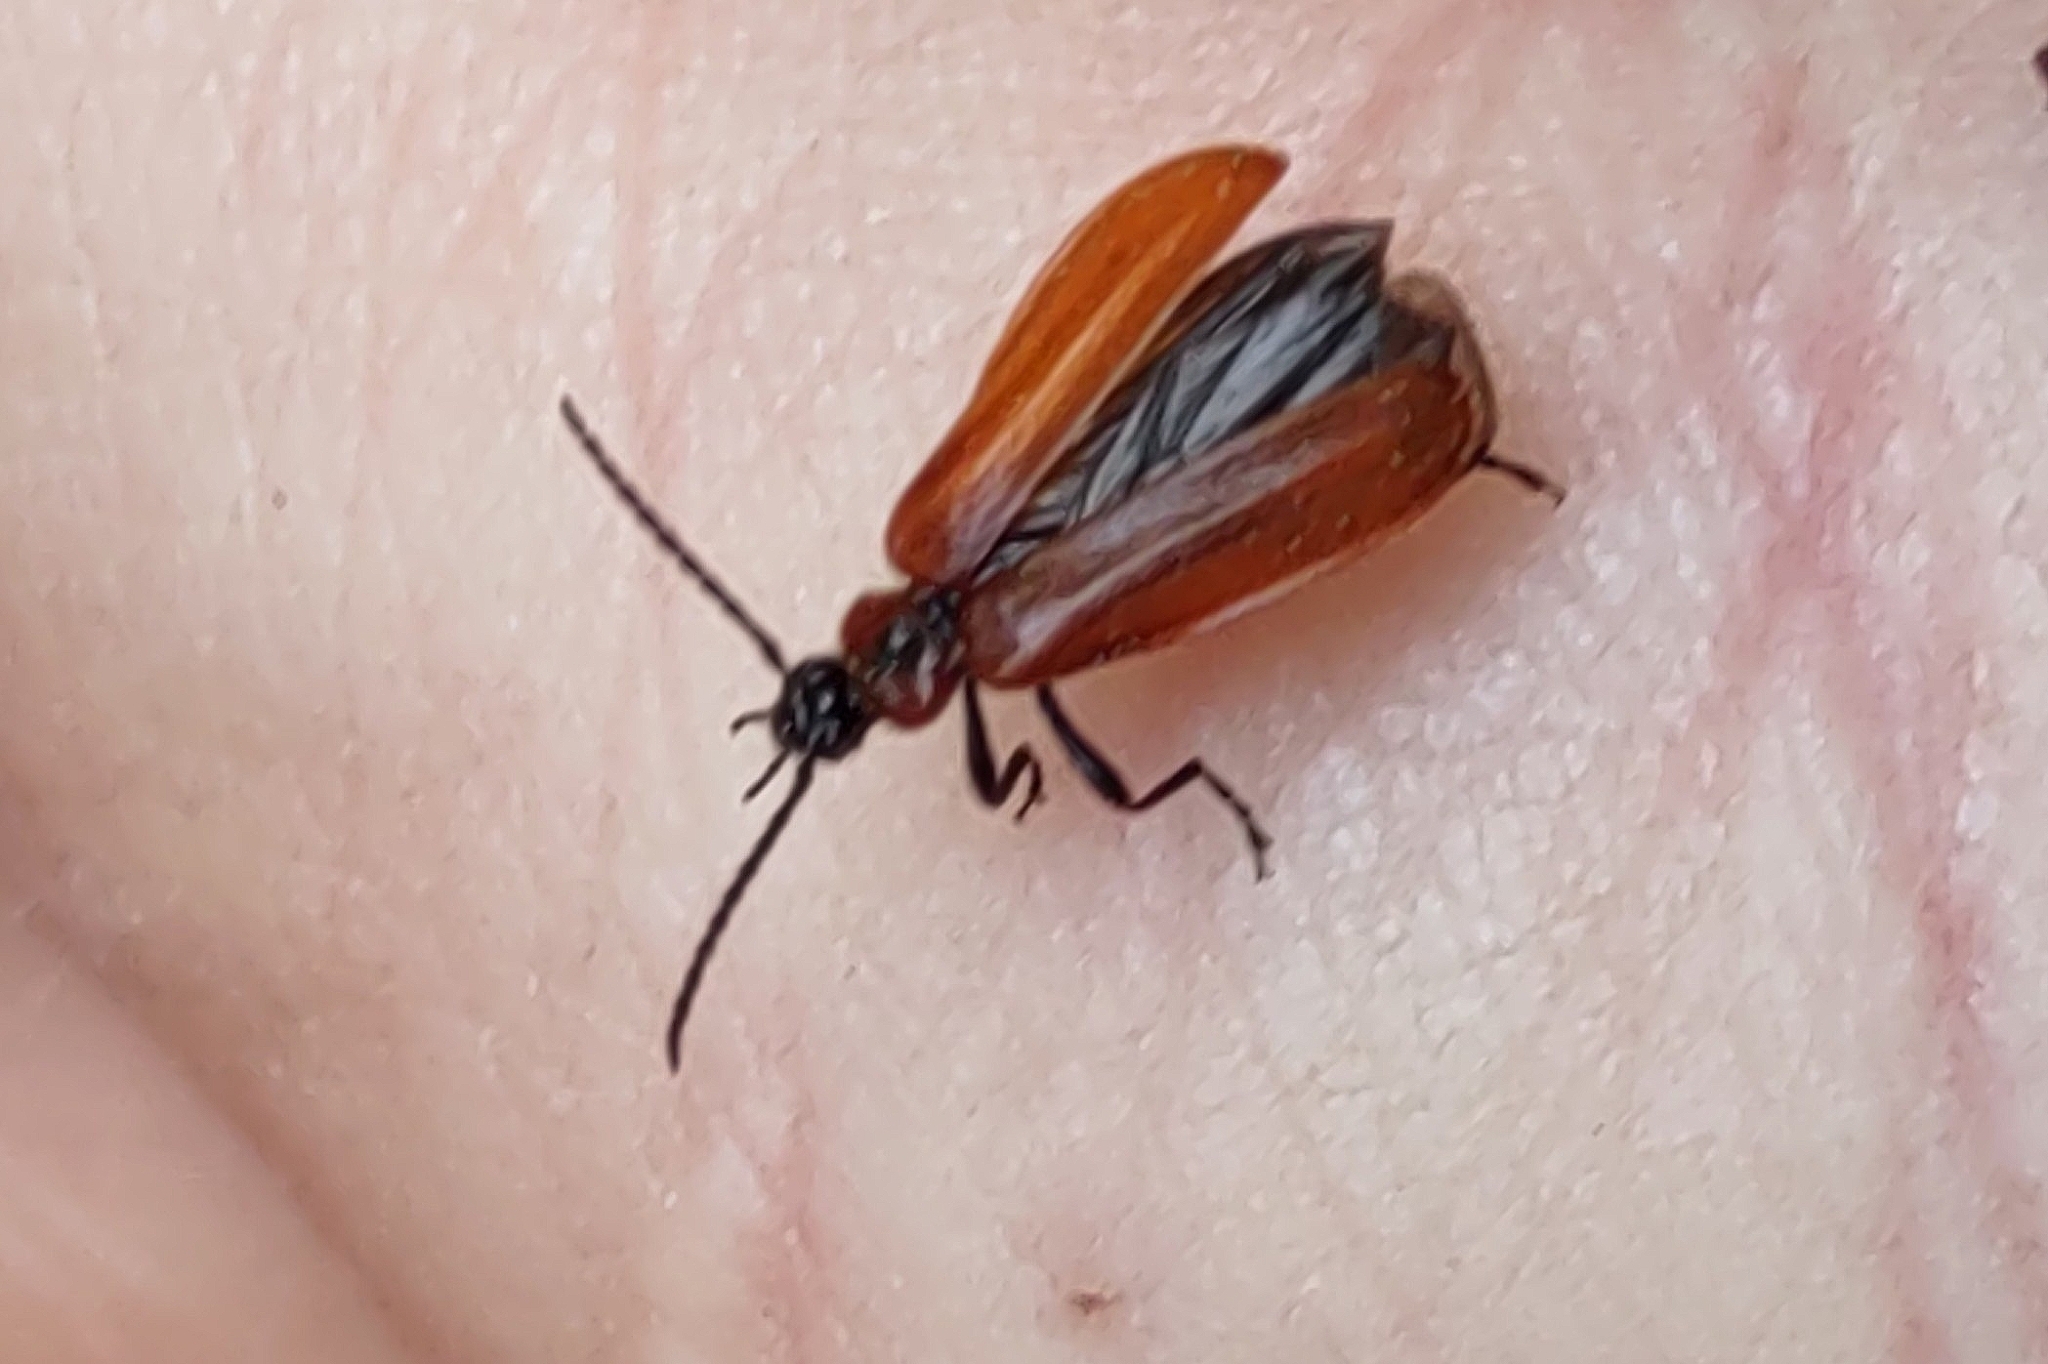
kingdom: Animalia
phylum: Arthropoda
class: Insecta
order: Coleoptera
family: Pyrochroidae
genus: Schizotus
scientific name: Schizotus pectinicornis
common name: Scarce cardinal beetle
